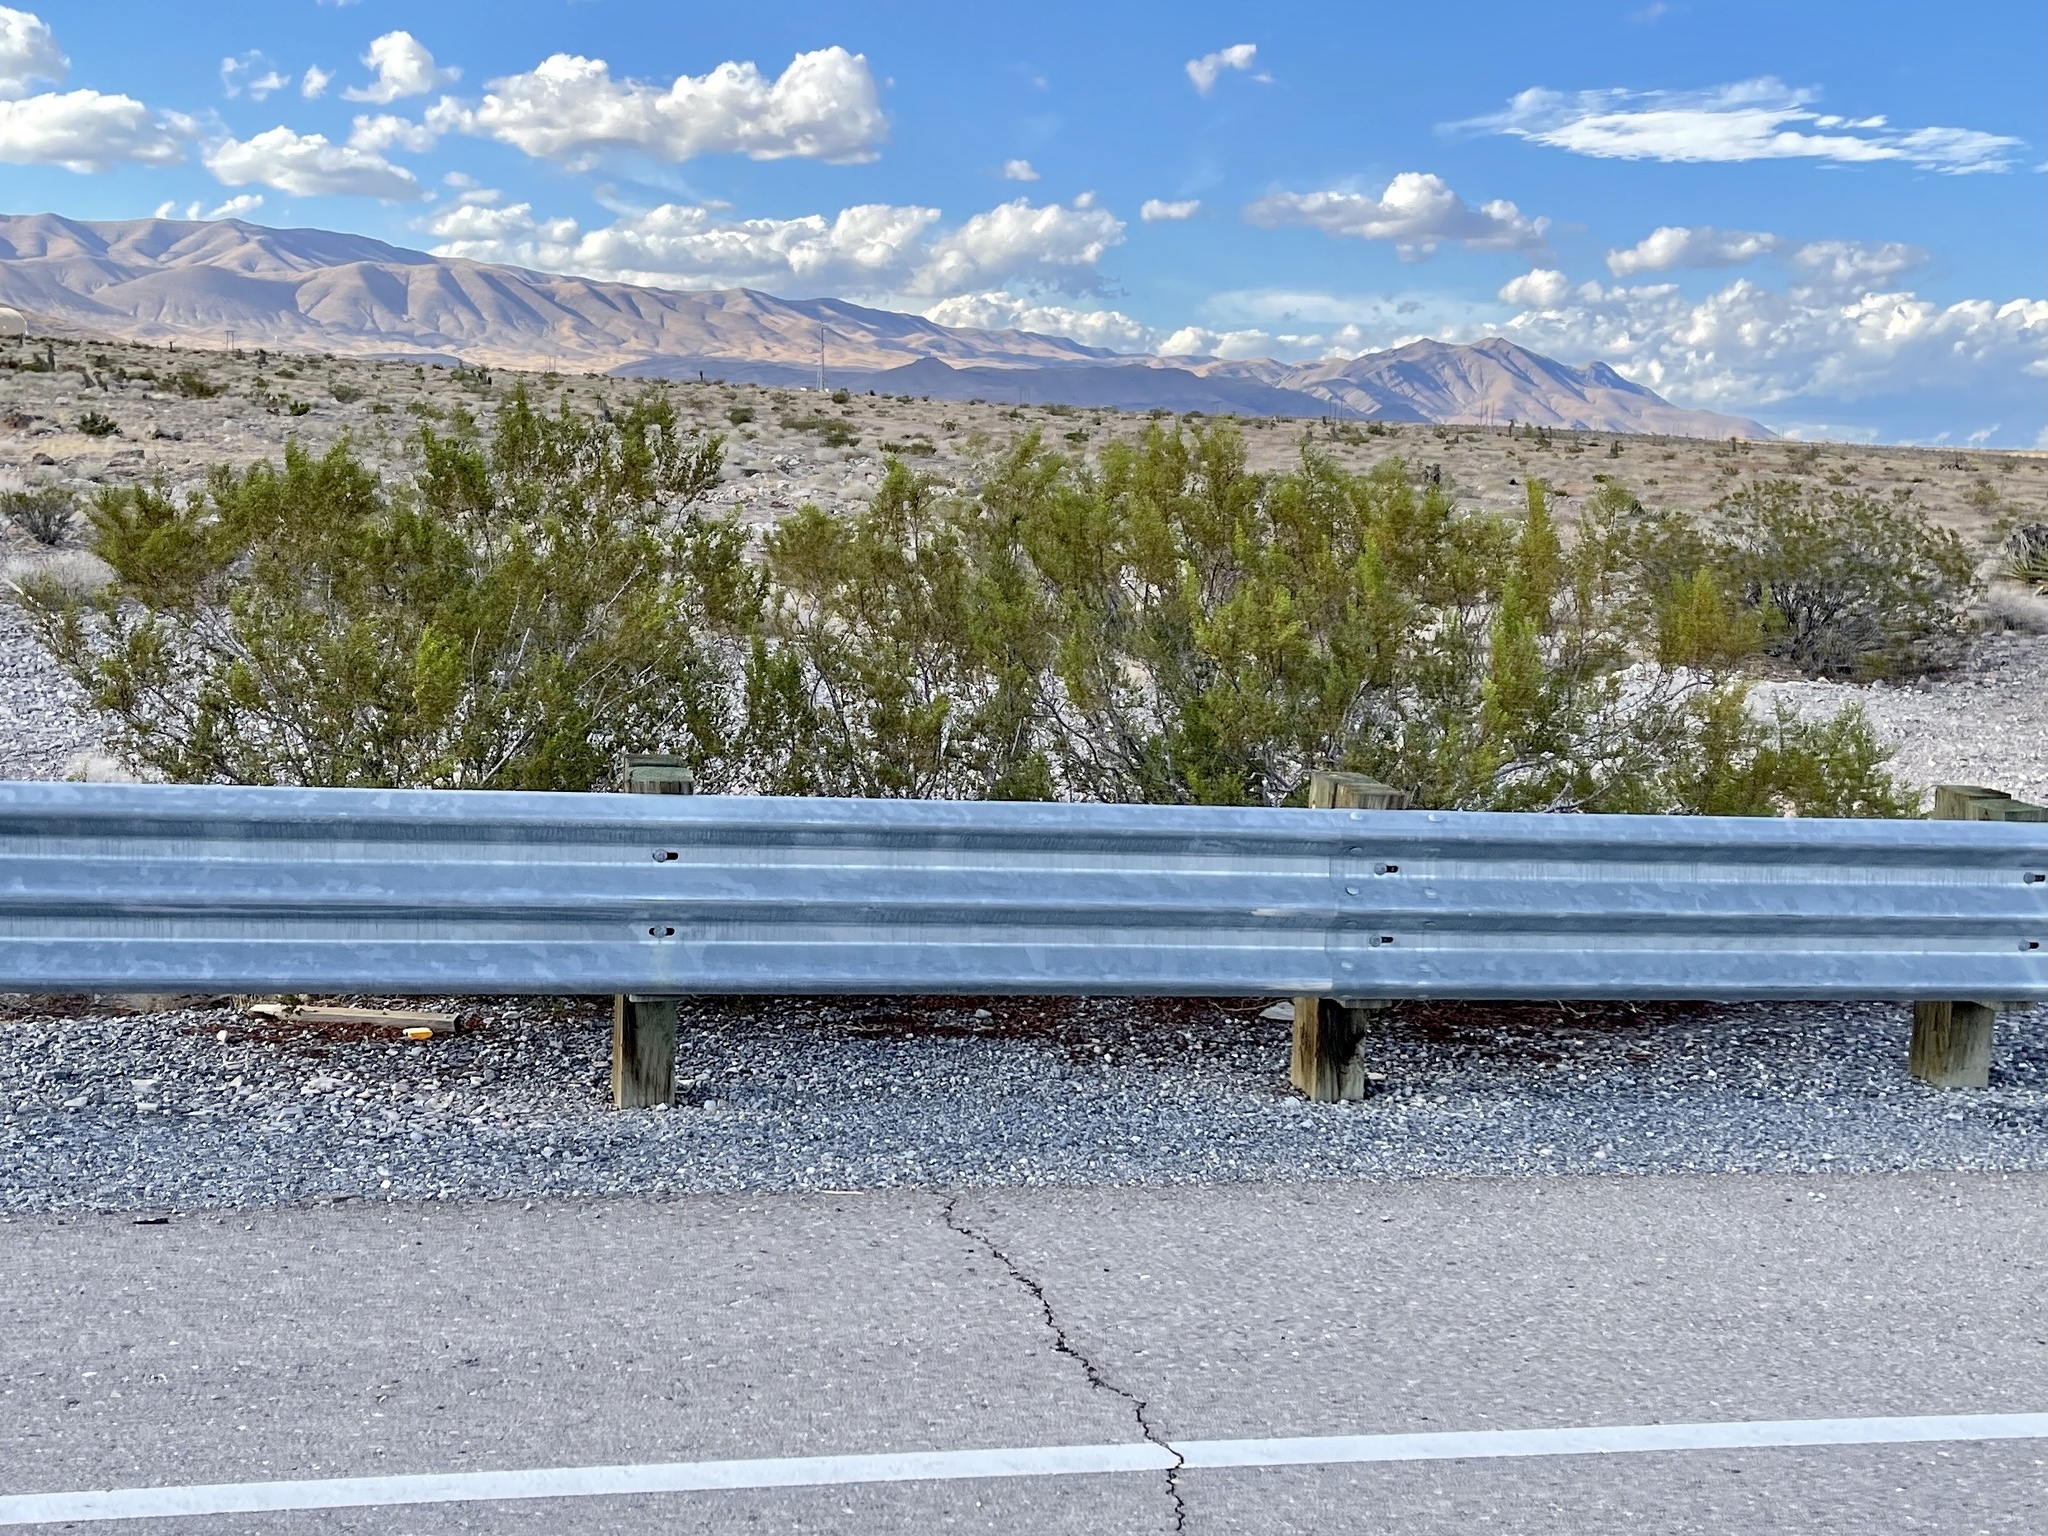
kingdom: Plantae
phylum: Tracheophyta
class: Magnoliopsida
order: Zygophyllales
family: Zygophyllaceae
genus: Larrea
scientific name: Larrea tridentata
